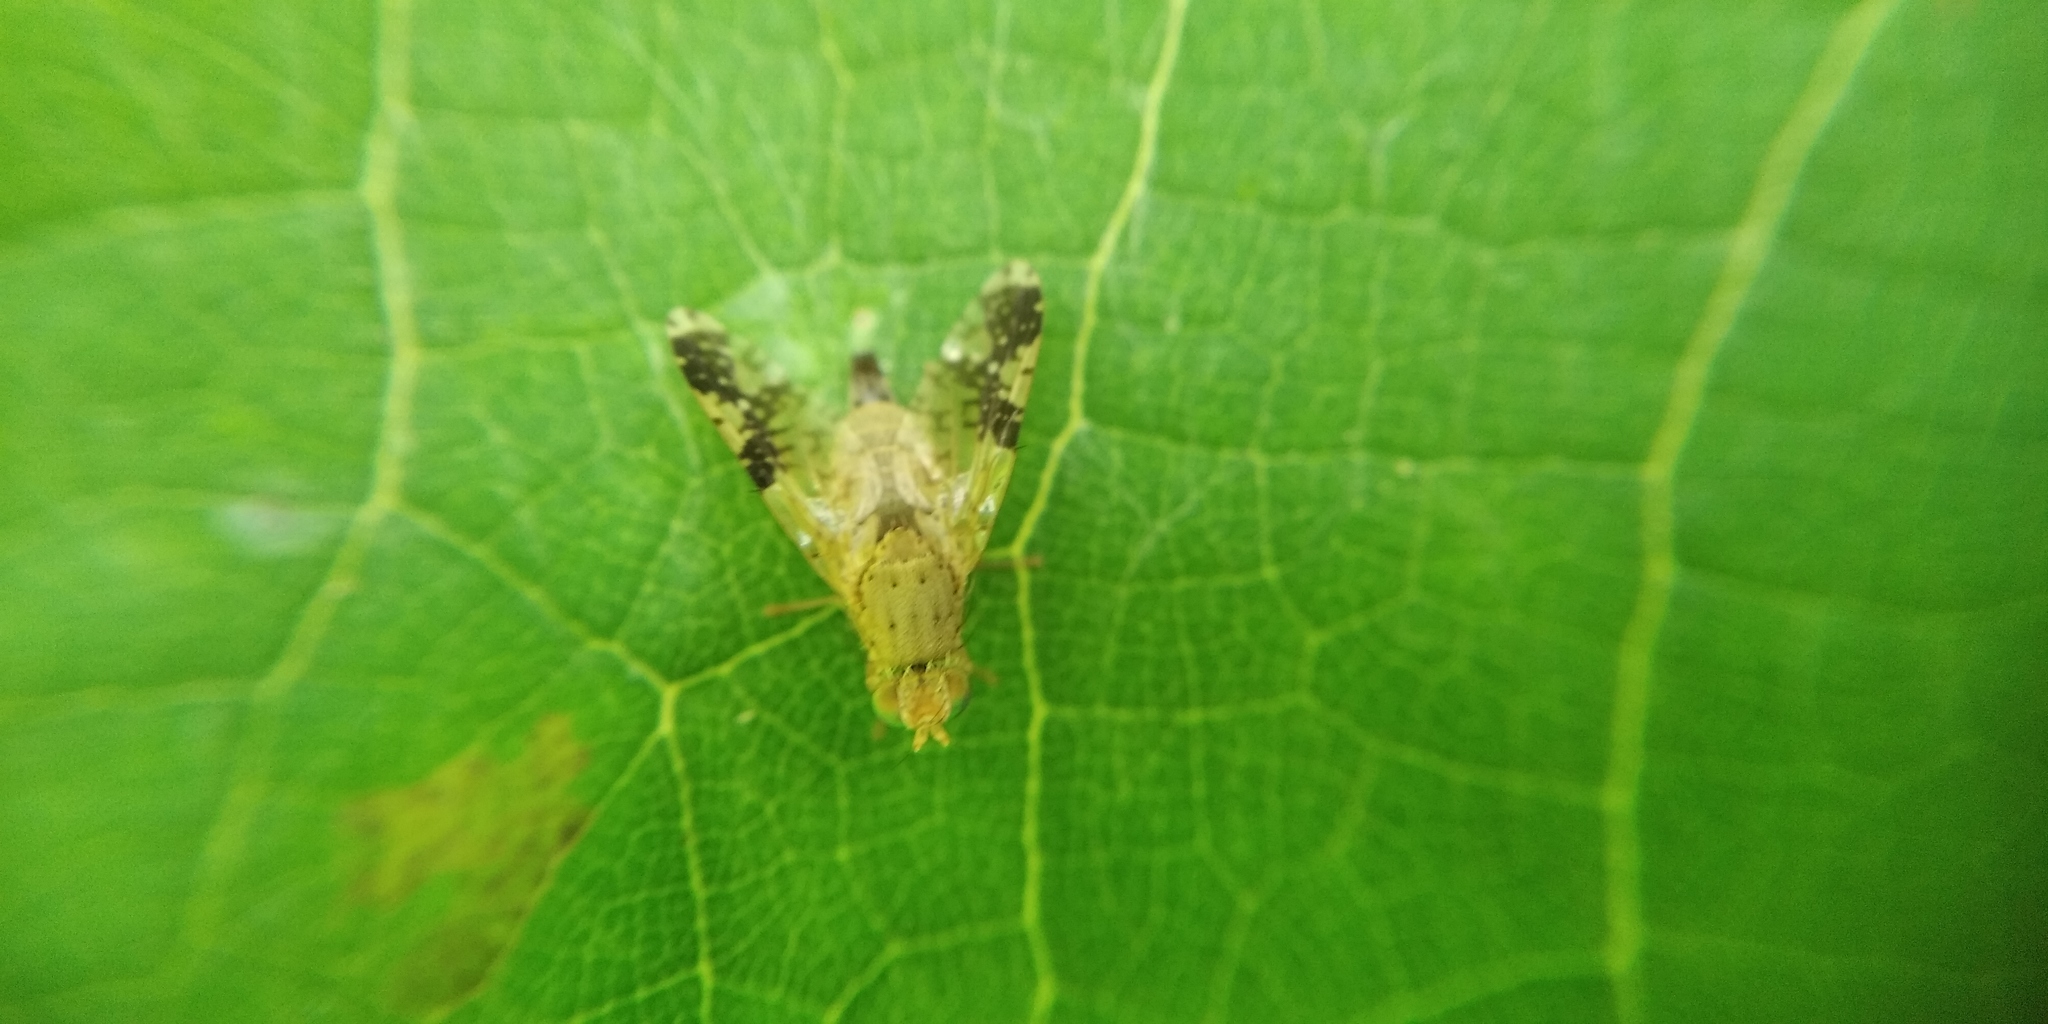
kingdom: Animalia
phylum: Arthropoda
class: Insecta
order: Diptera
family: Tephritidae
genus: Tephritis
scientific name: Tephritis bardanae
